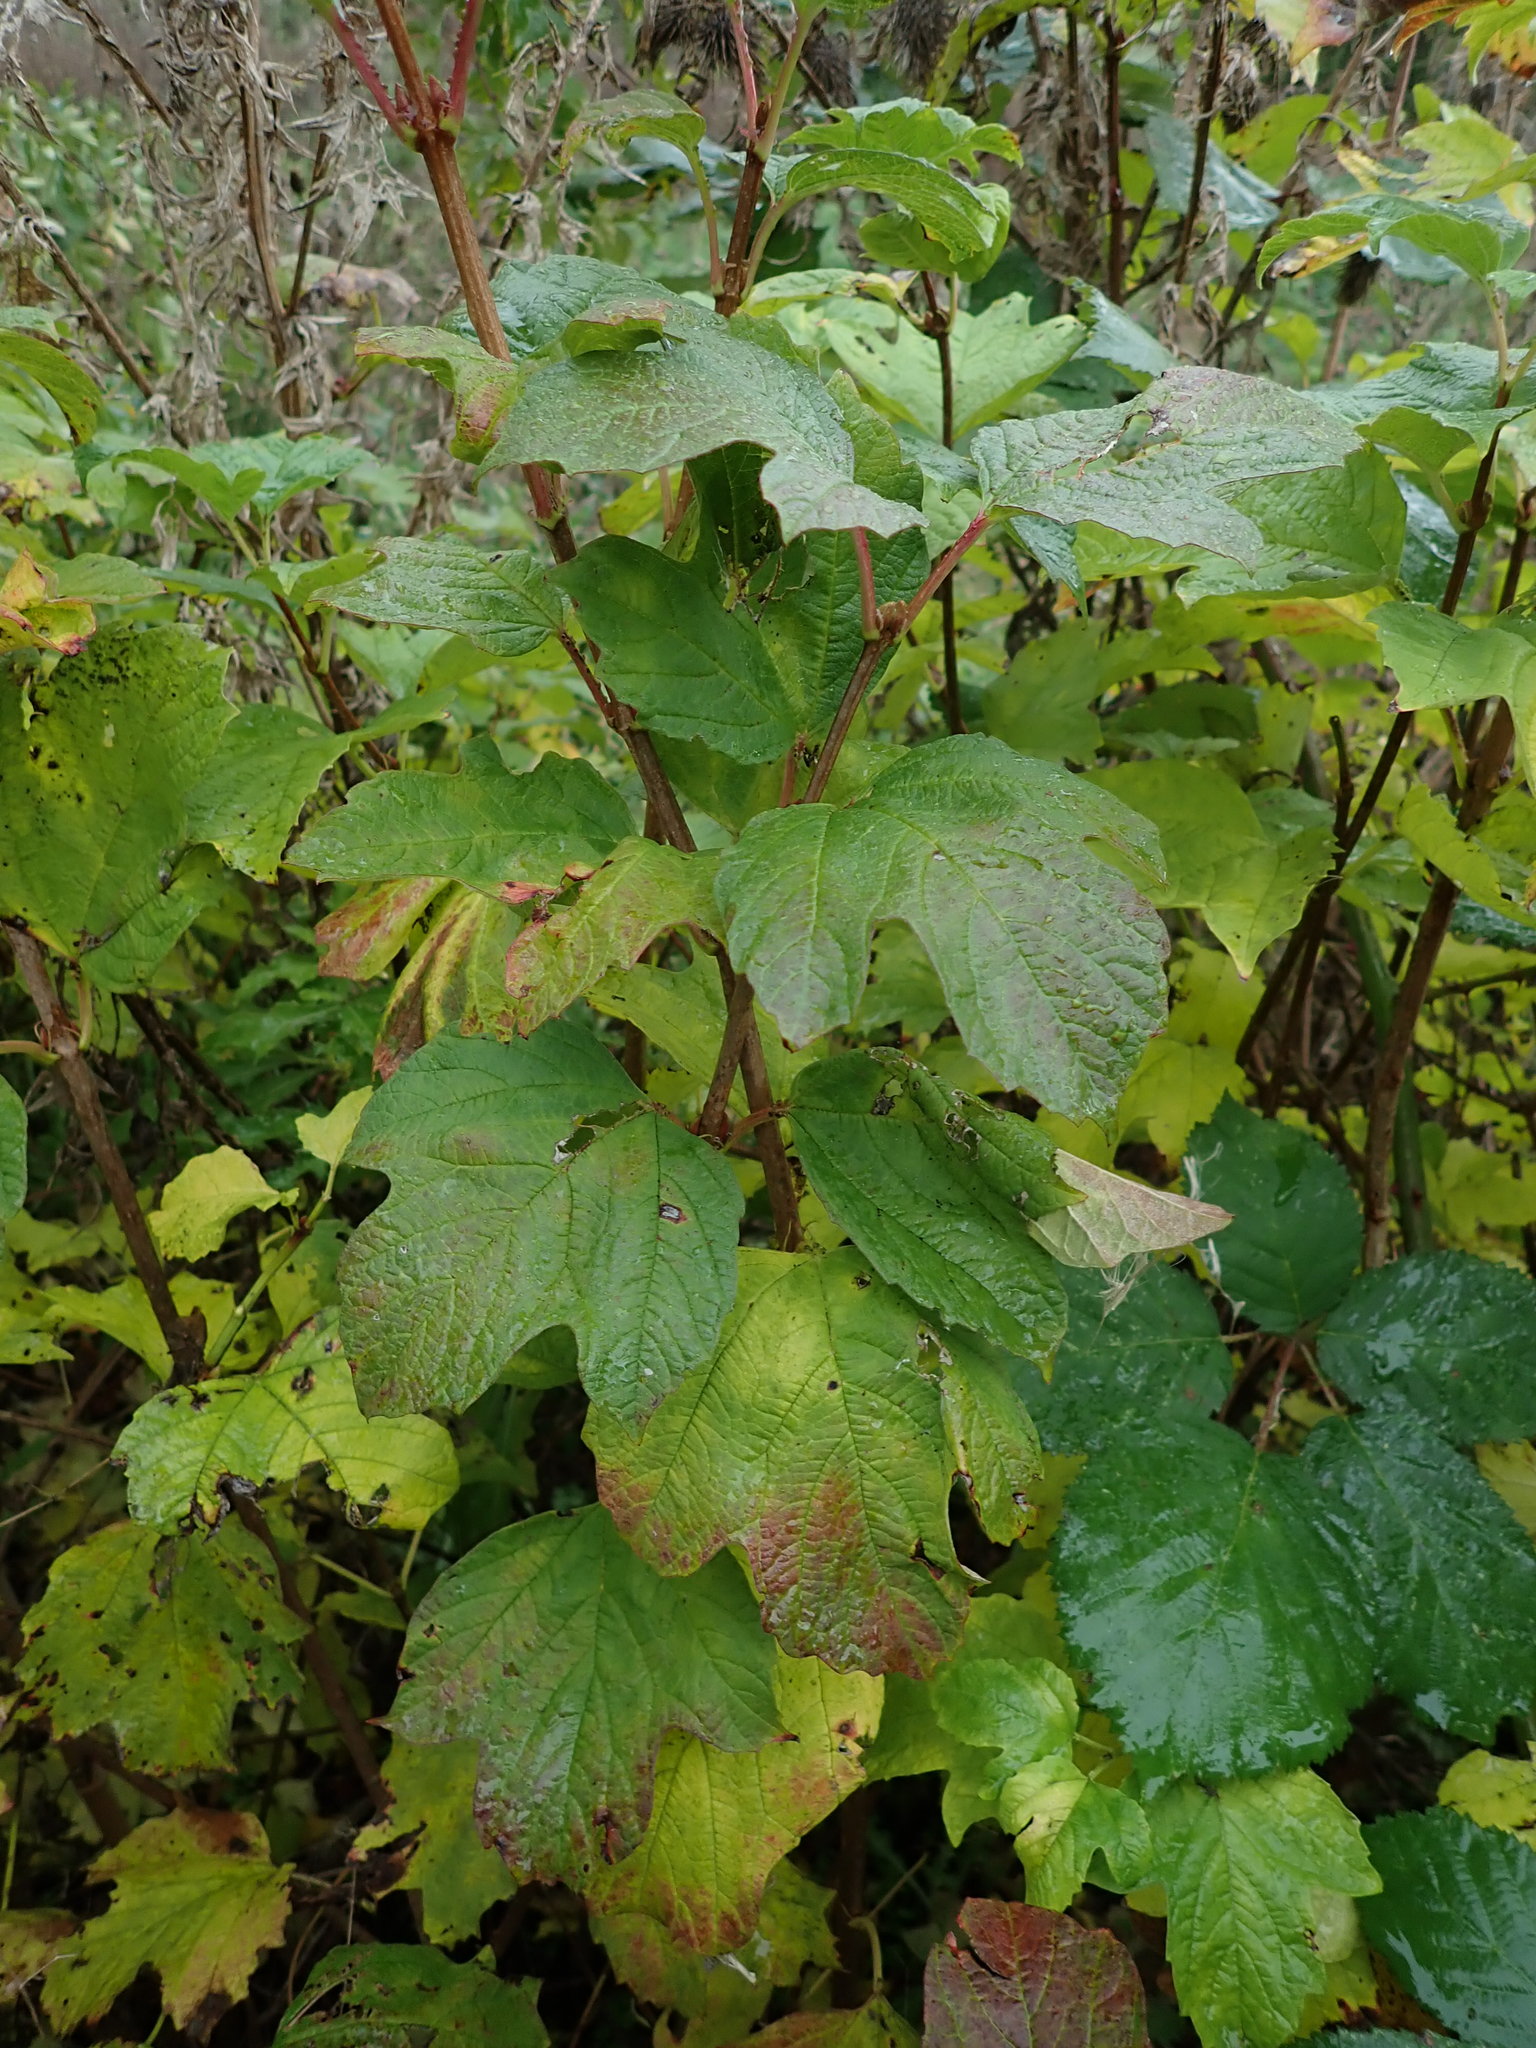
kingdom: Plantae
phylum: Tracheophyta
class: Magnoliopsida
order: Dipsacales
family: Viburnaceae
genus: Viburnum
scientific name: Viburnum opulus
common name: Guelder-rose
